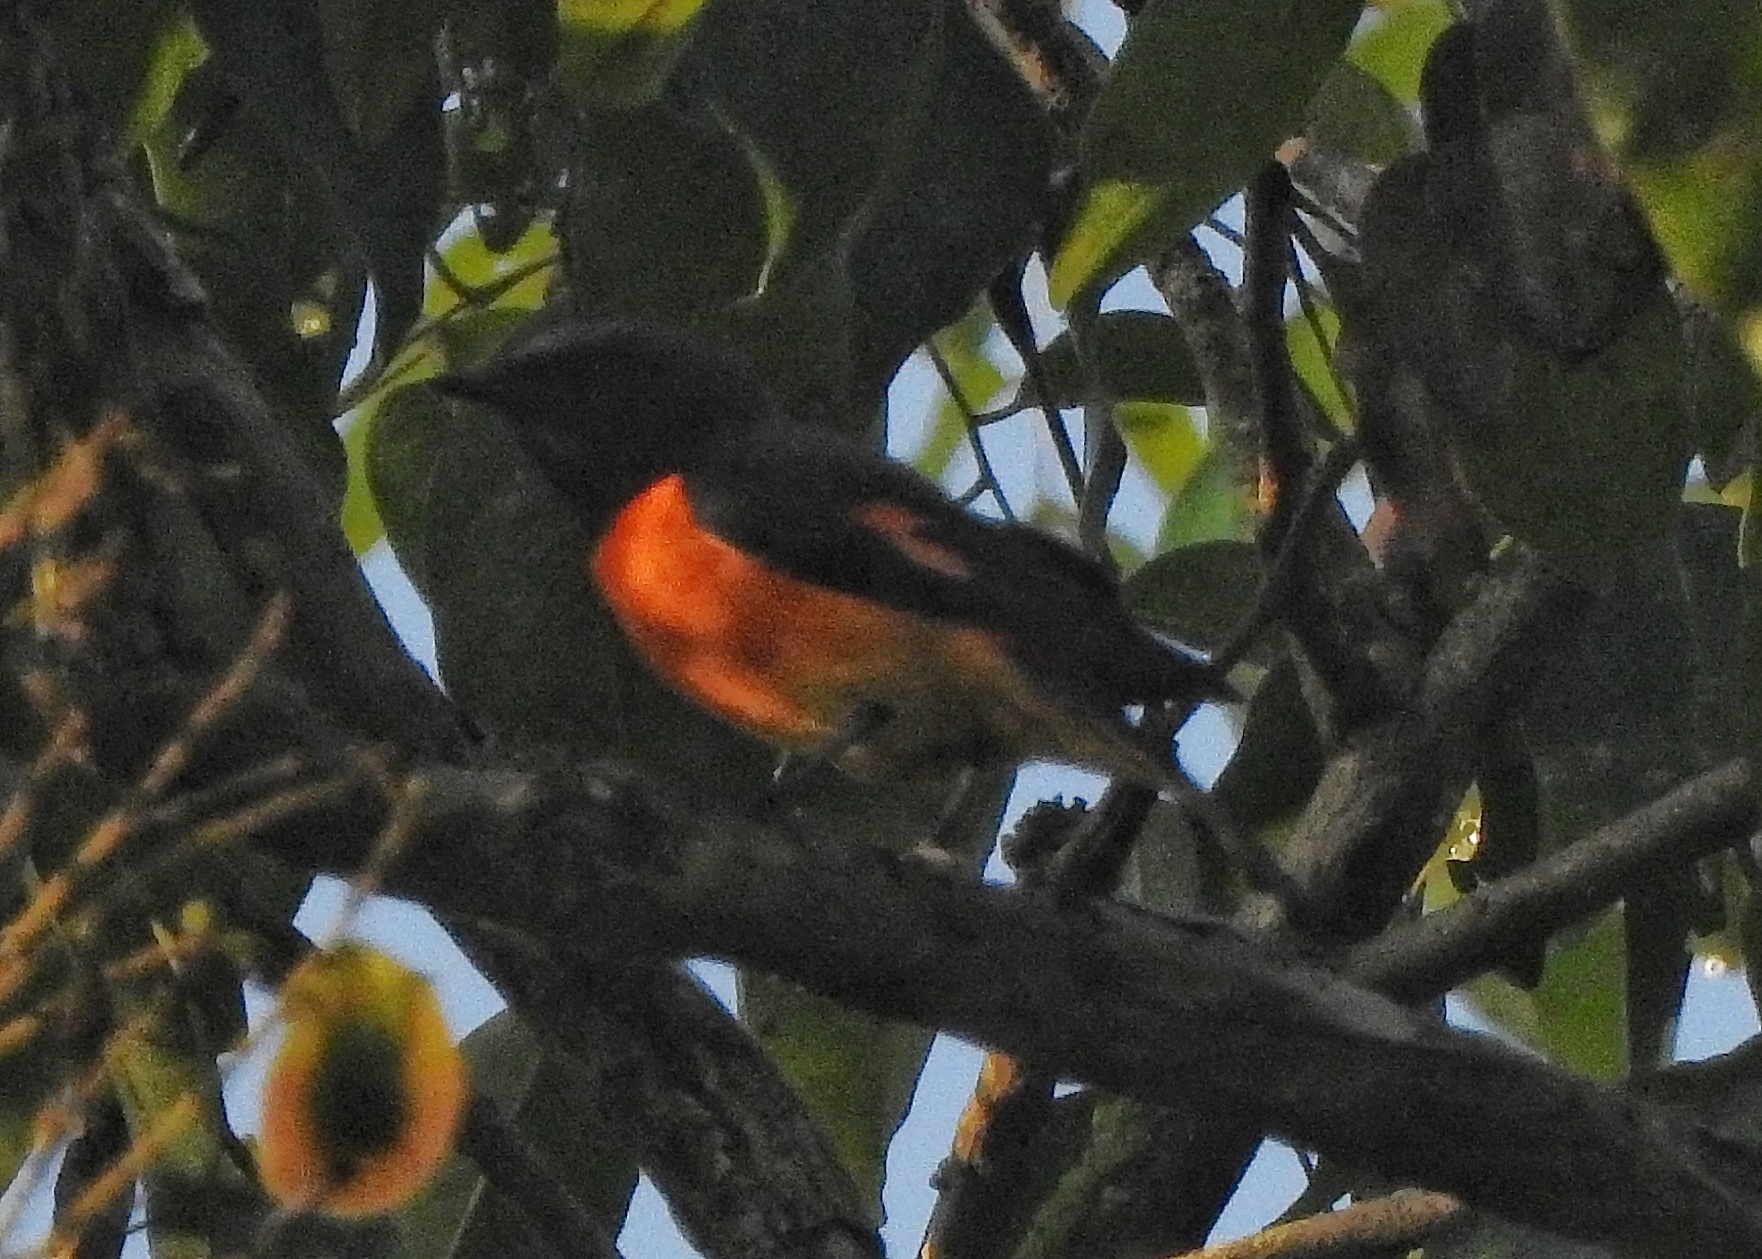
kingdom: Animalia
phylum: Chordata
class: Aves
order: Passeriformes
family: Campephagidae
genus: Pericrocotus
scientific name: Pericrocotus cinnamomeus
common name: Small minivet
